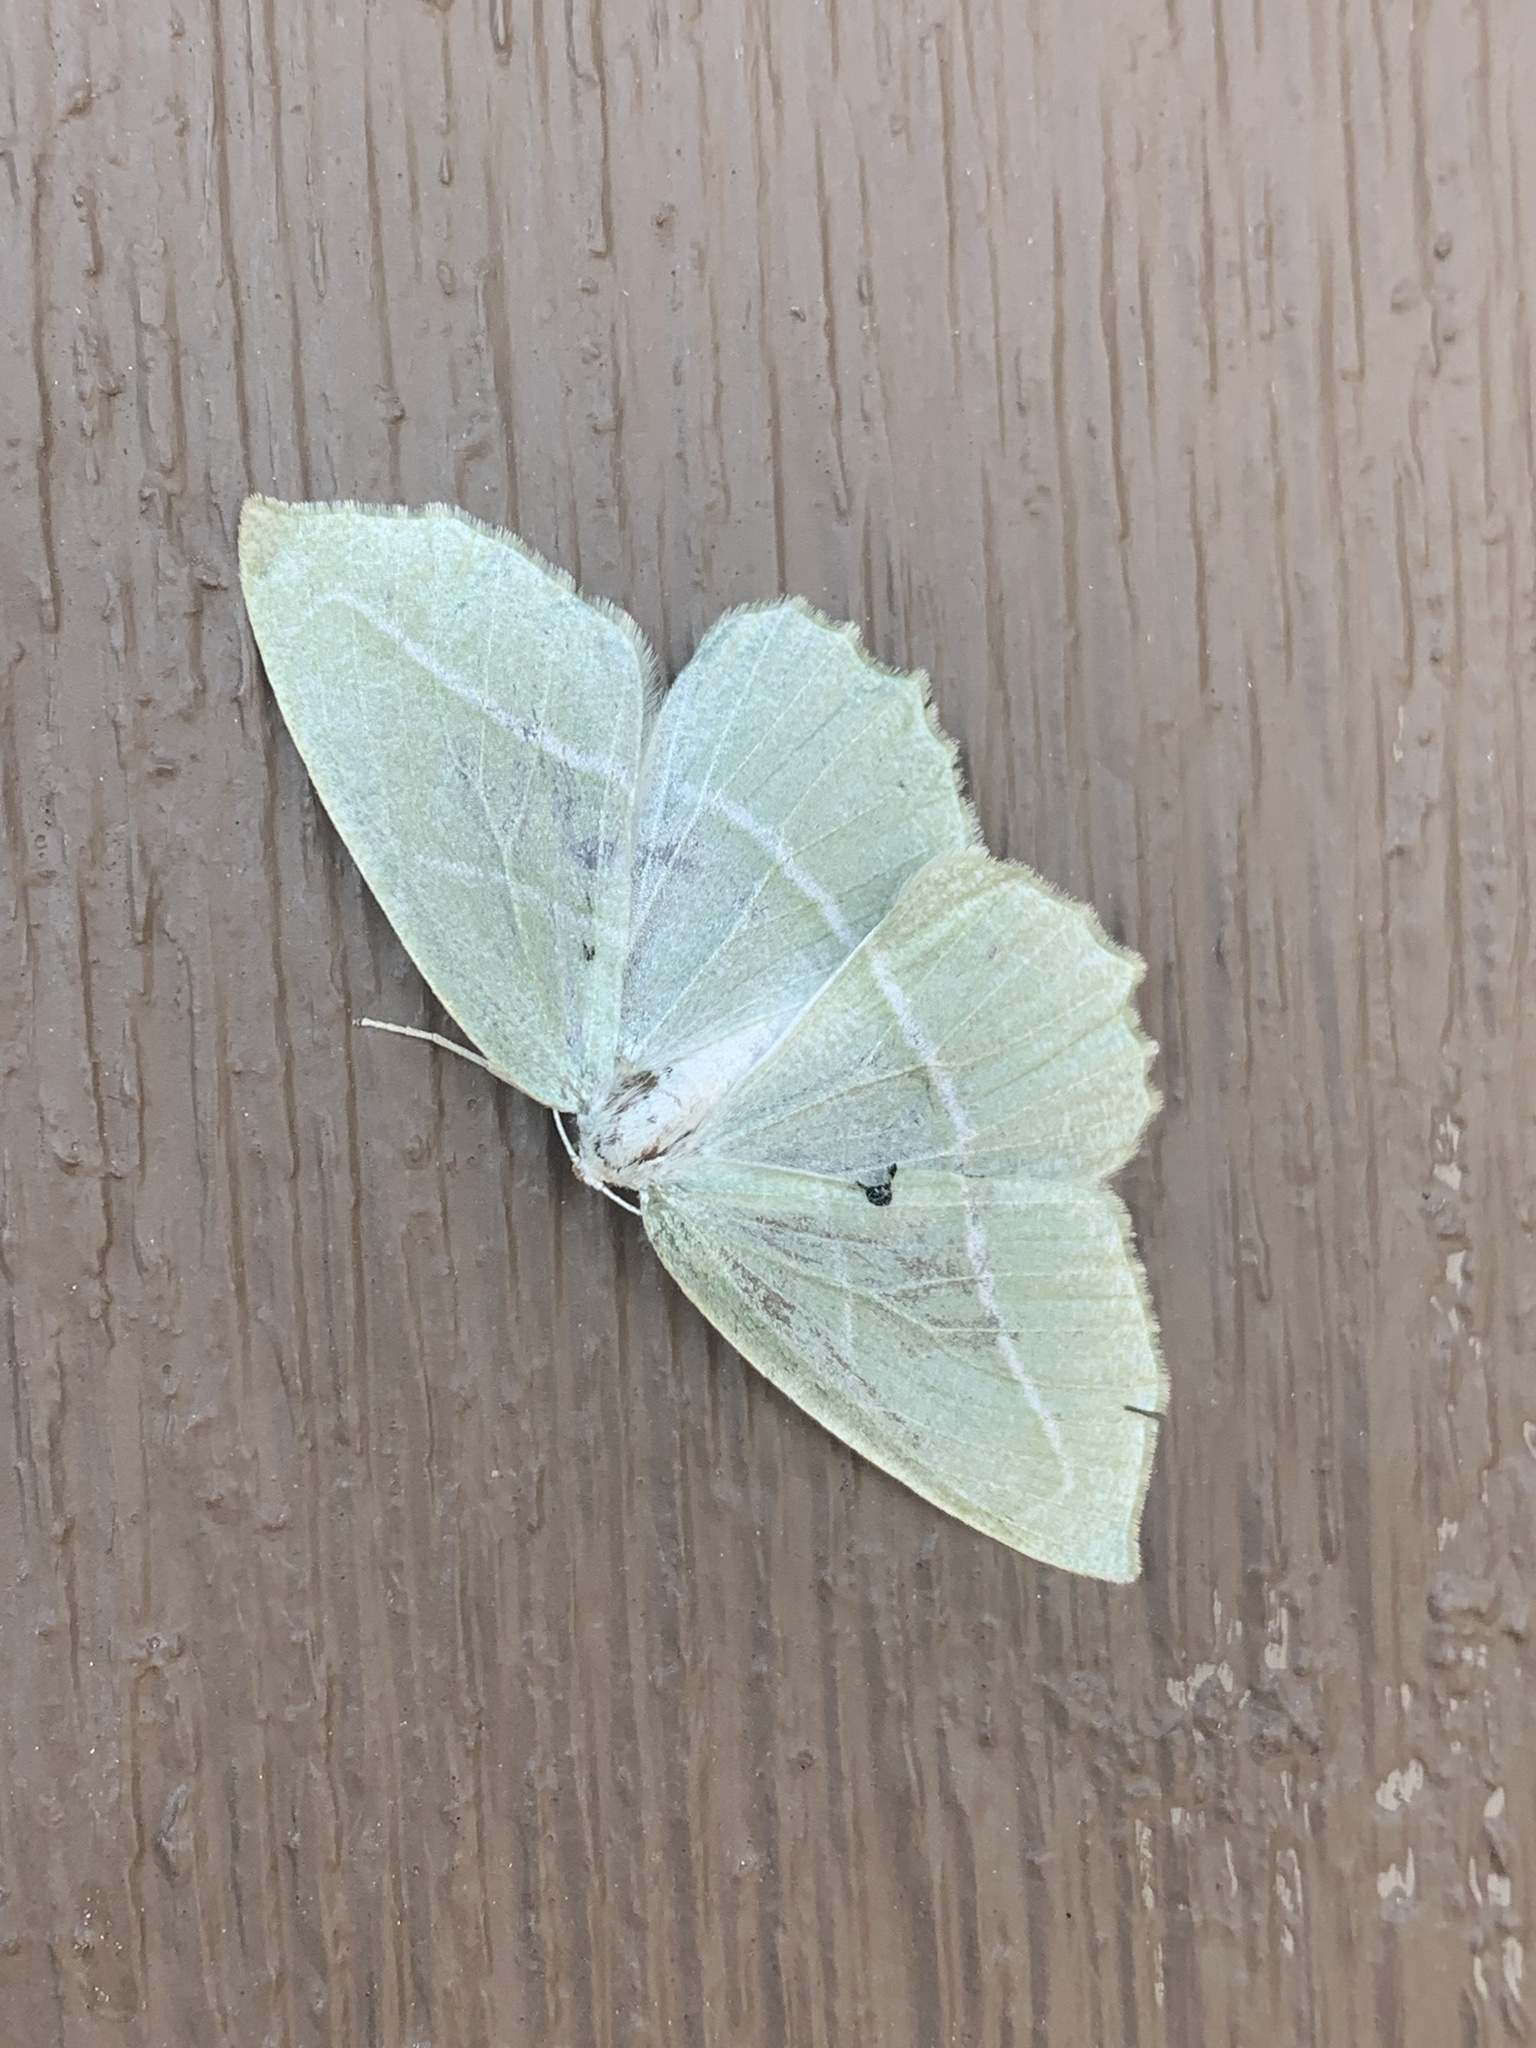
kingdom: Animalia
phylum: Arthropoda
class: Insecta
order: Lepidoptera
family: Geometridae
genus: Campaea
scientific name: Campaea perlata
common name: Fringed looper
